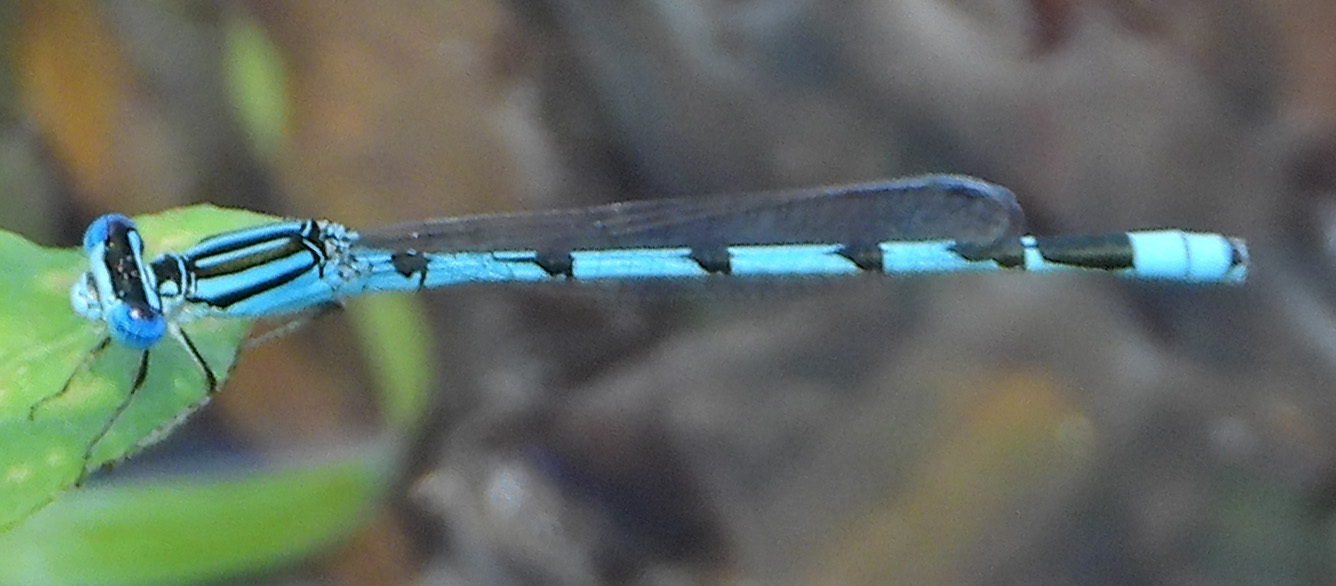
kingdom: Animalia
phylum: Arthropoda
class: Insecta
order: Odonata
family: Coenagrionidae
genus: Enallagma
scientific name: Enallagma durum
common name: Big bluet
